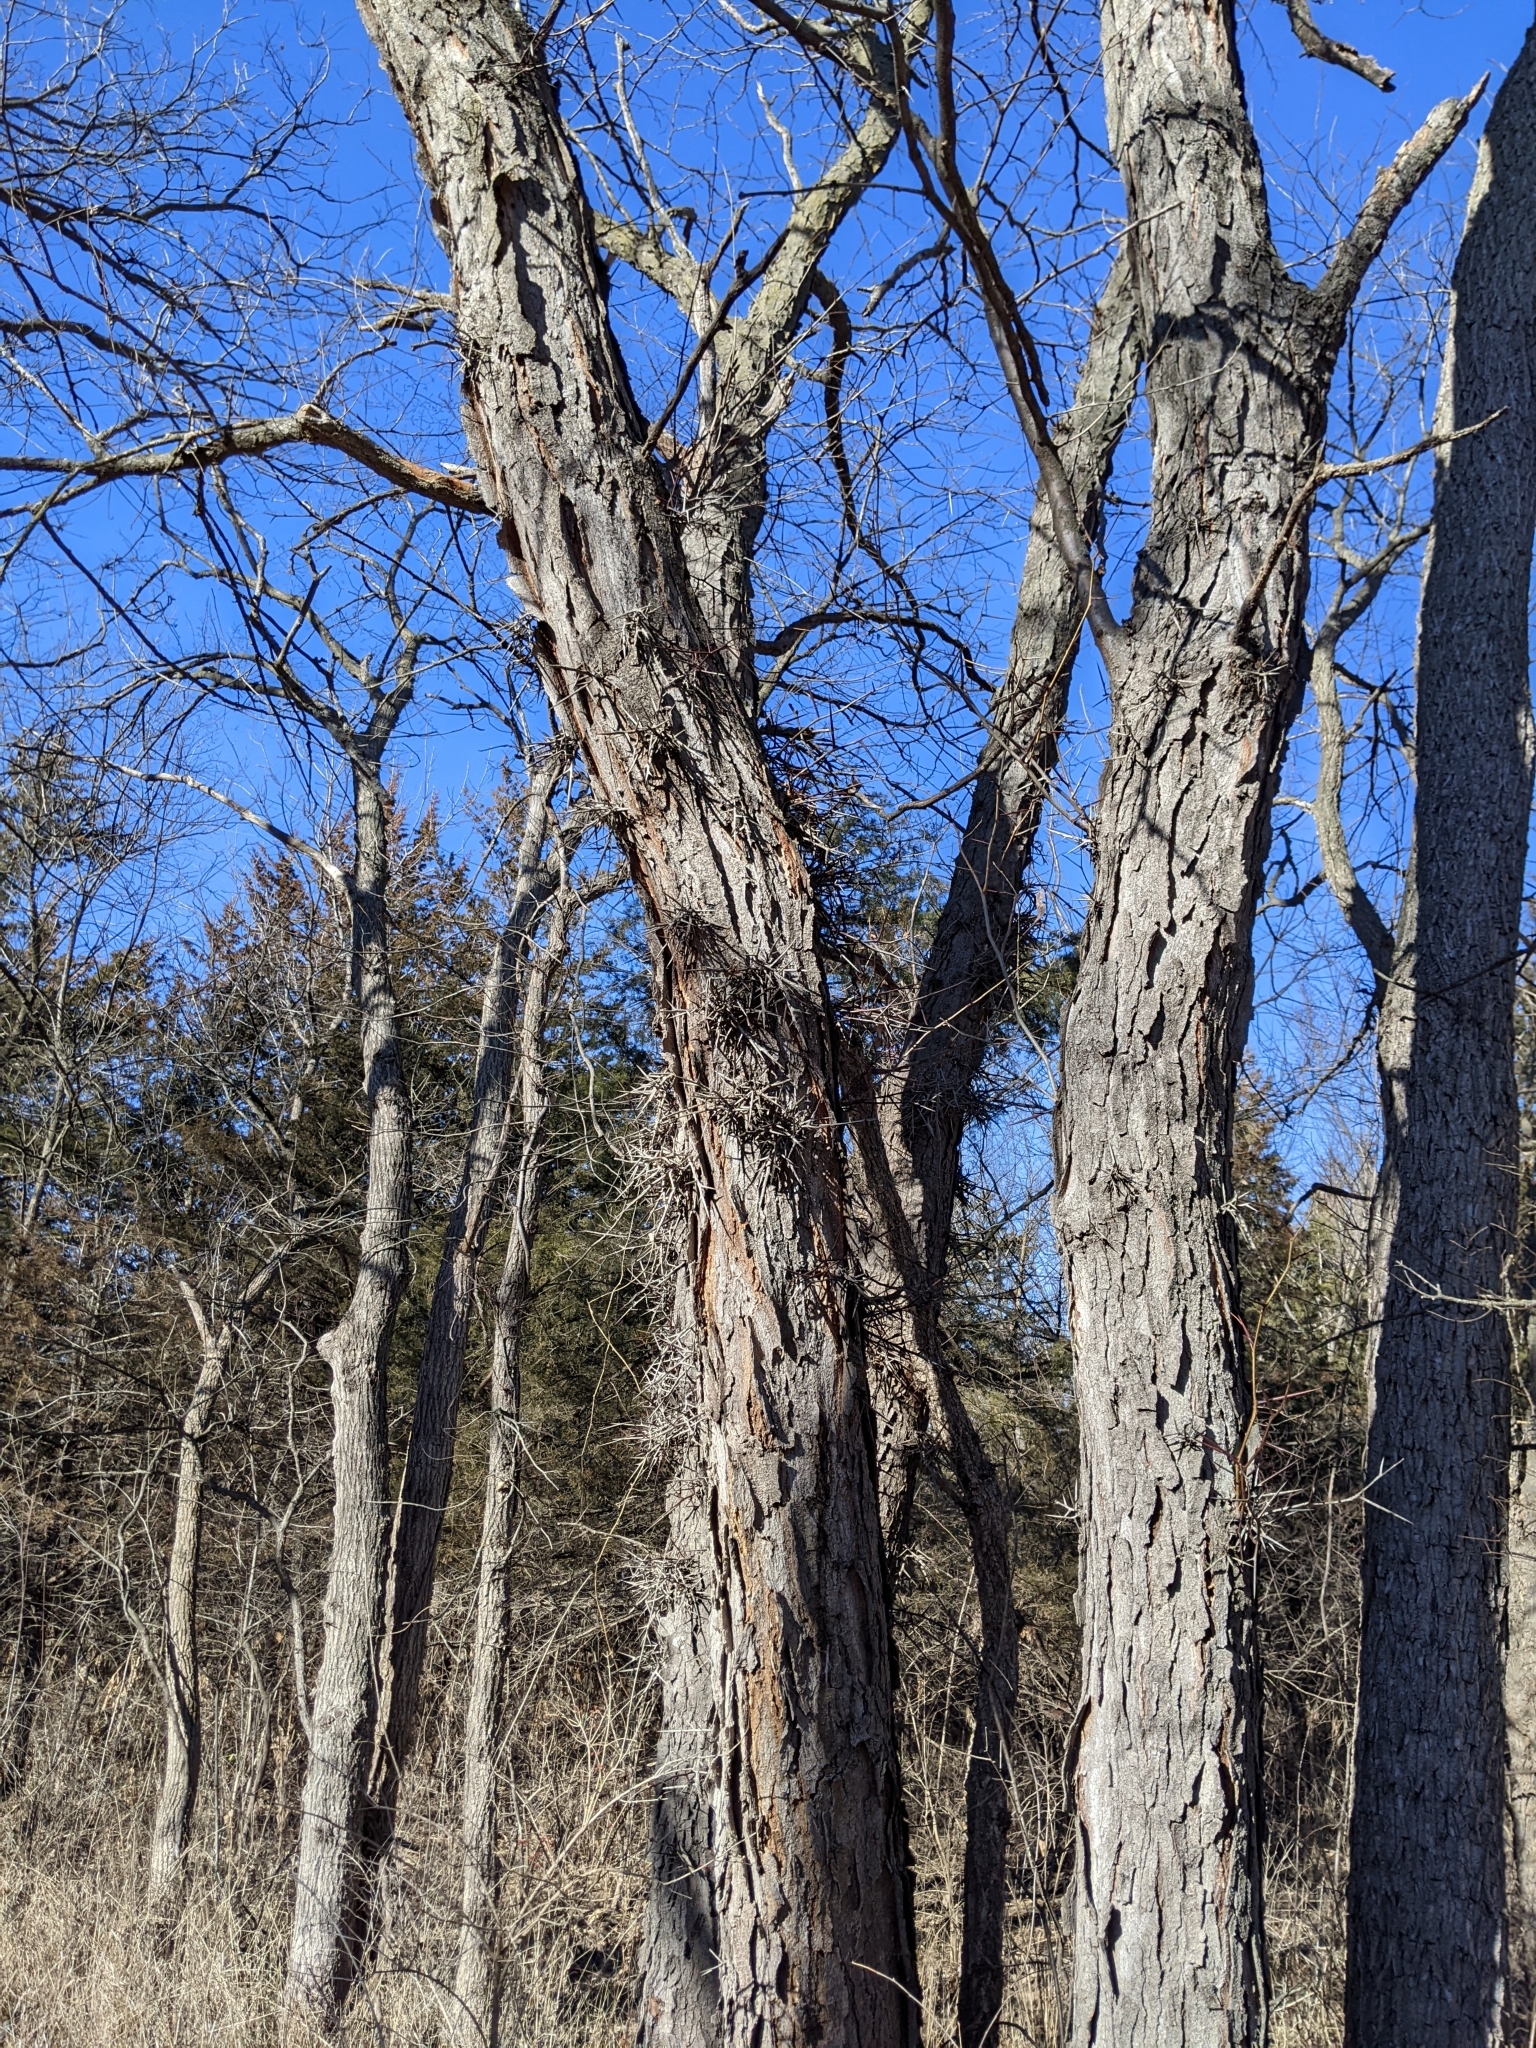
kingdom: Plantae
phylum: Tracheophyta
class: Magnoliopsida
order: Fabales
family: Fabaceae
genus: Gleditsia
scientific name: Gleditsia triacanthos
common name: Common honeylocust
